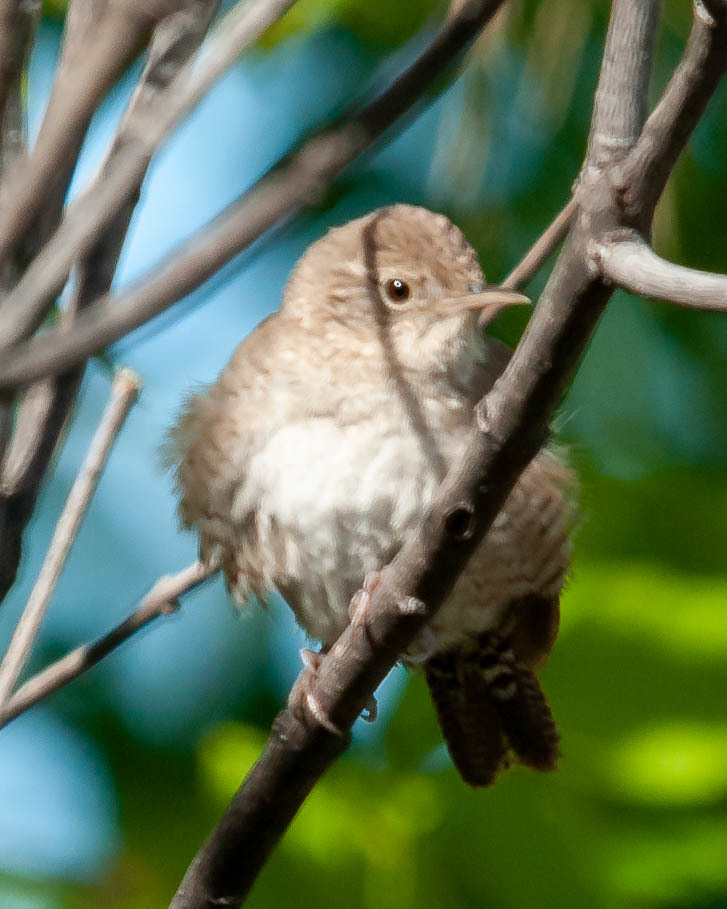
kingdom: Animalia
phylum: Chordata
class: Aves
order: Passeriformes
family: Troglodytidae
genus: Troglodytes
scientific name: Troglodytes aedon
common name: House wren
